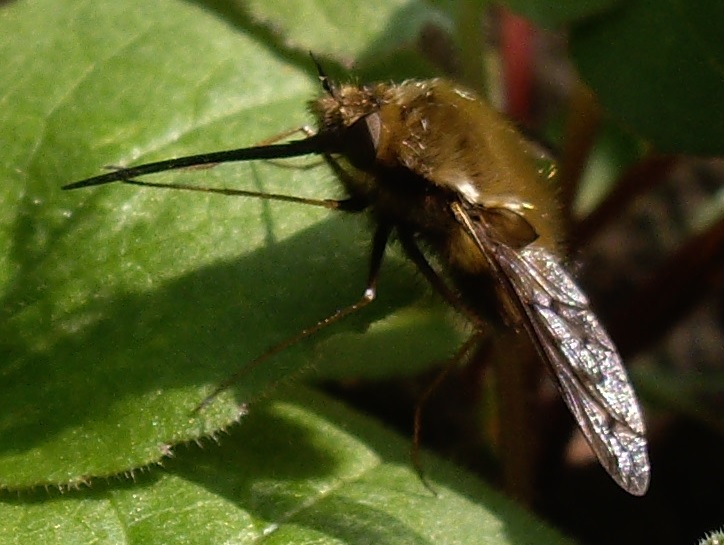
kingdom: Animalia
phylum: Arthropoda
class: Insecta
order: Diptera
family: Bombyliidae
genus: Bombylius
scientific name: Bombylius discolor
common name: Dotted bee-fly
